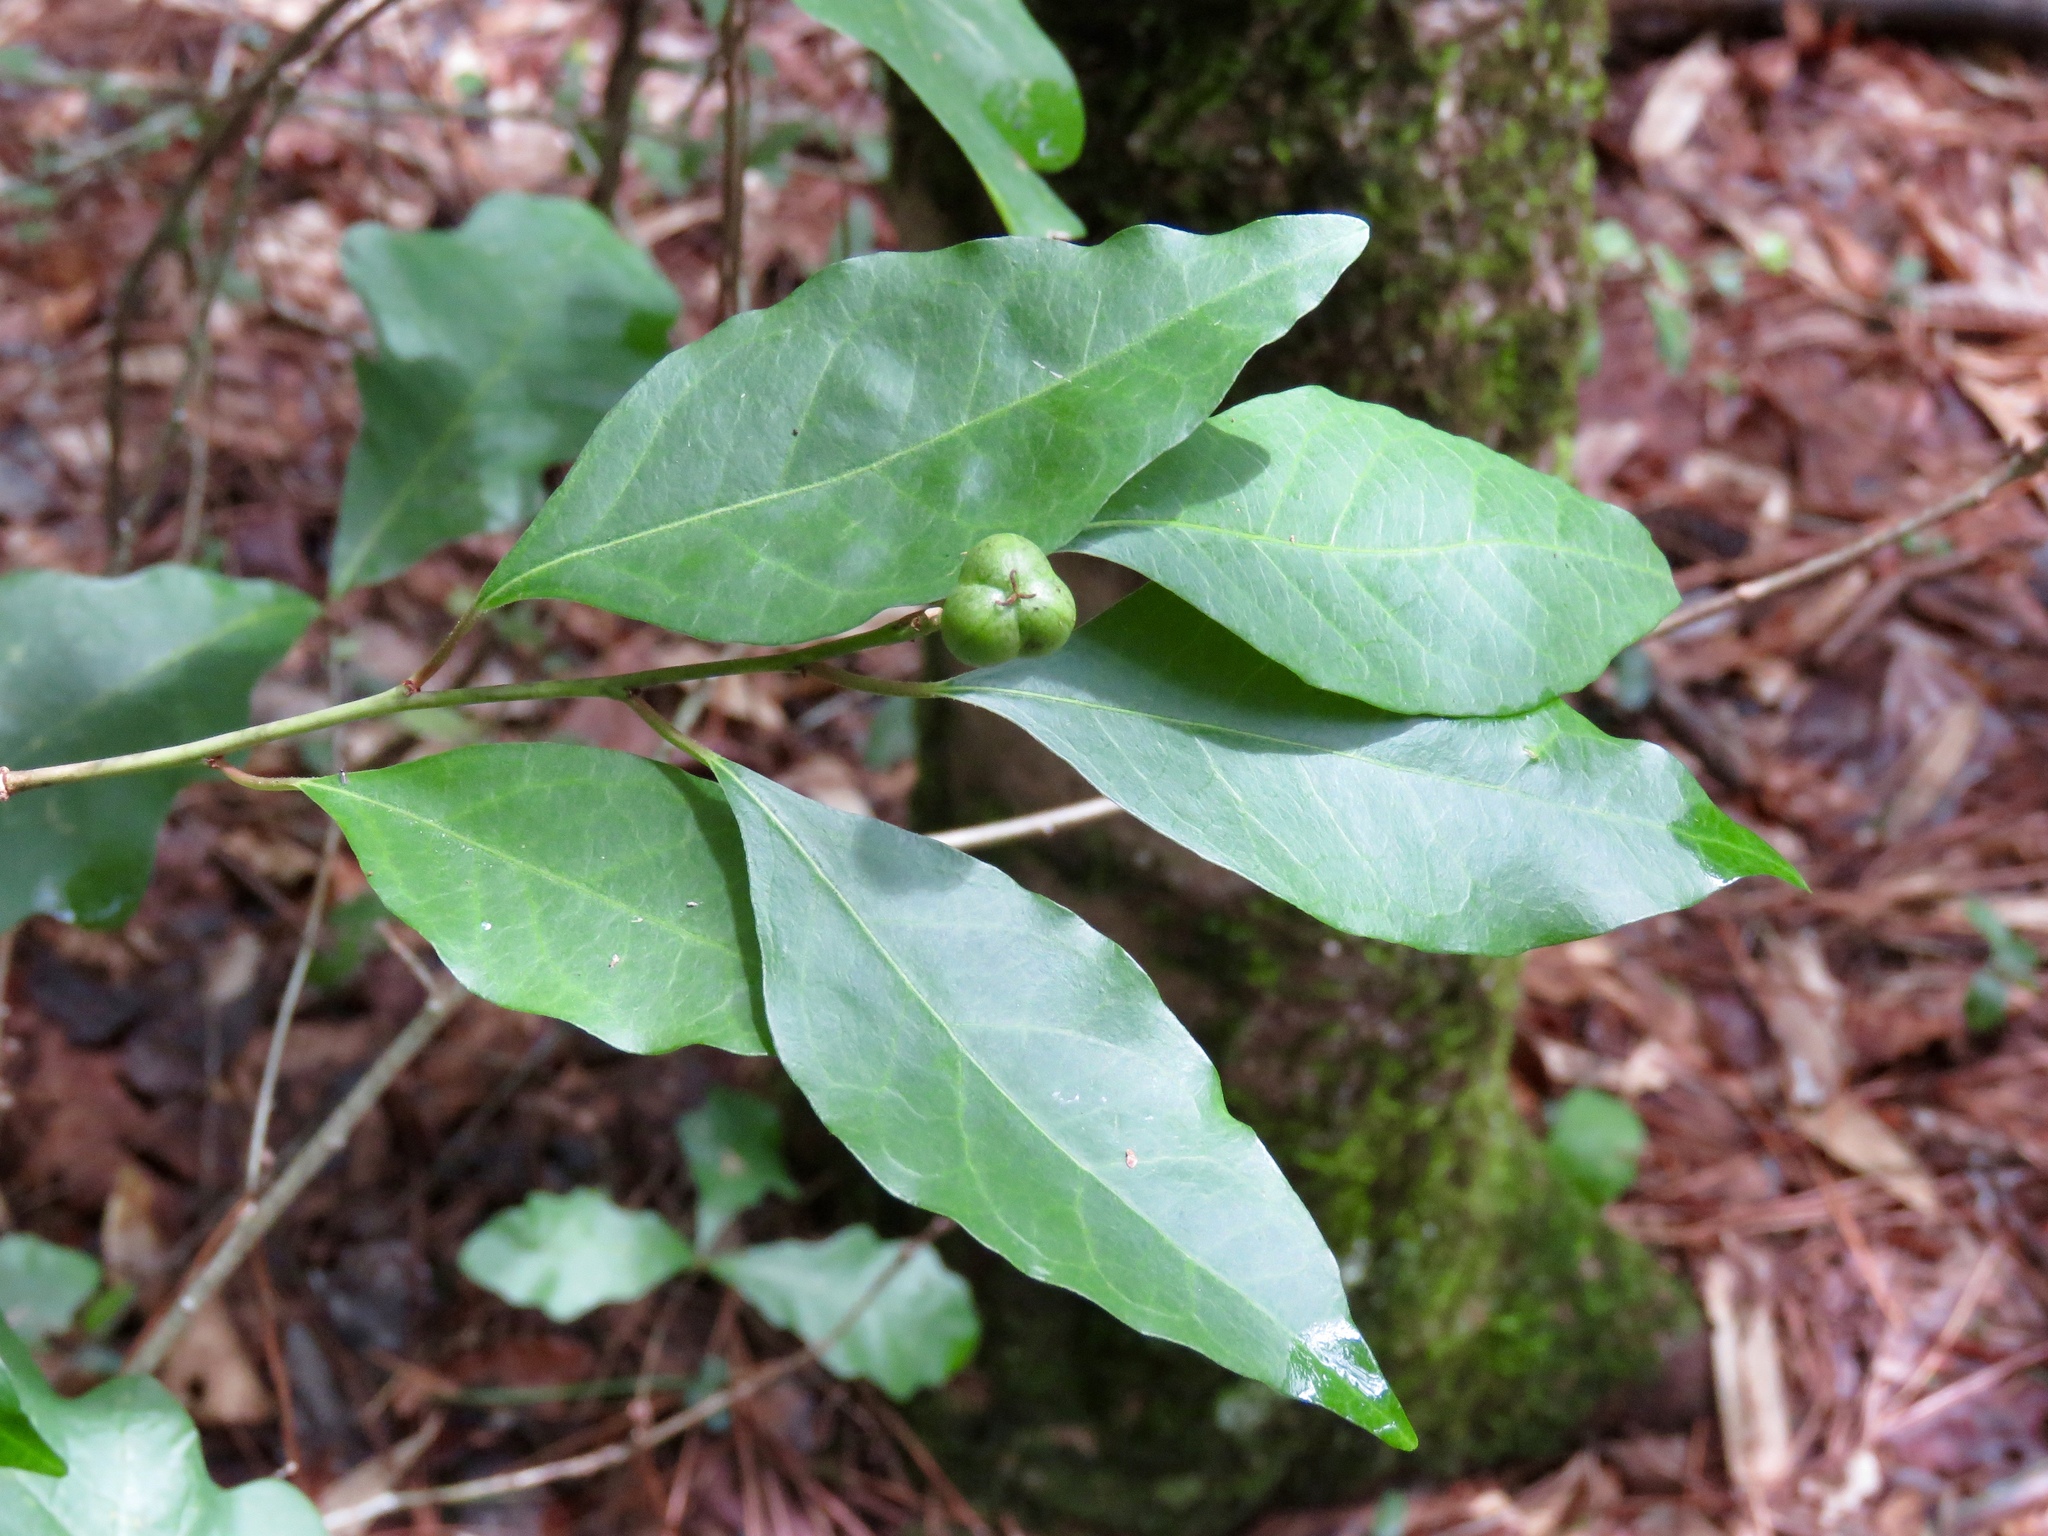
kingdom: Plantae
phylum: Tracheophyta
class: Magnoliopsida
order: Malpighiales
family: Euphorbiaceae
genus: Ditrysinia
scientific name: Ditrysinia fruticosa
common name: Gulf sebastian-bush
